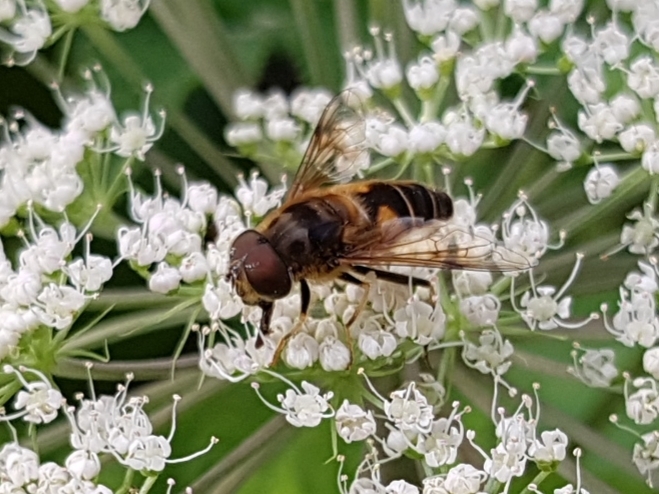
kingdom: Animalia
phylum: Arthropoda
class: Insecta
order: Diptera
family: Syrphidae
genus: Eristalis
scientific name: Eristalis pertinax
